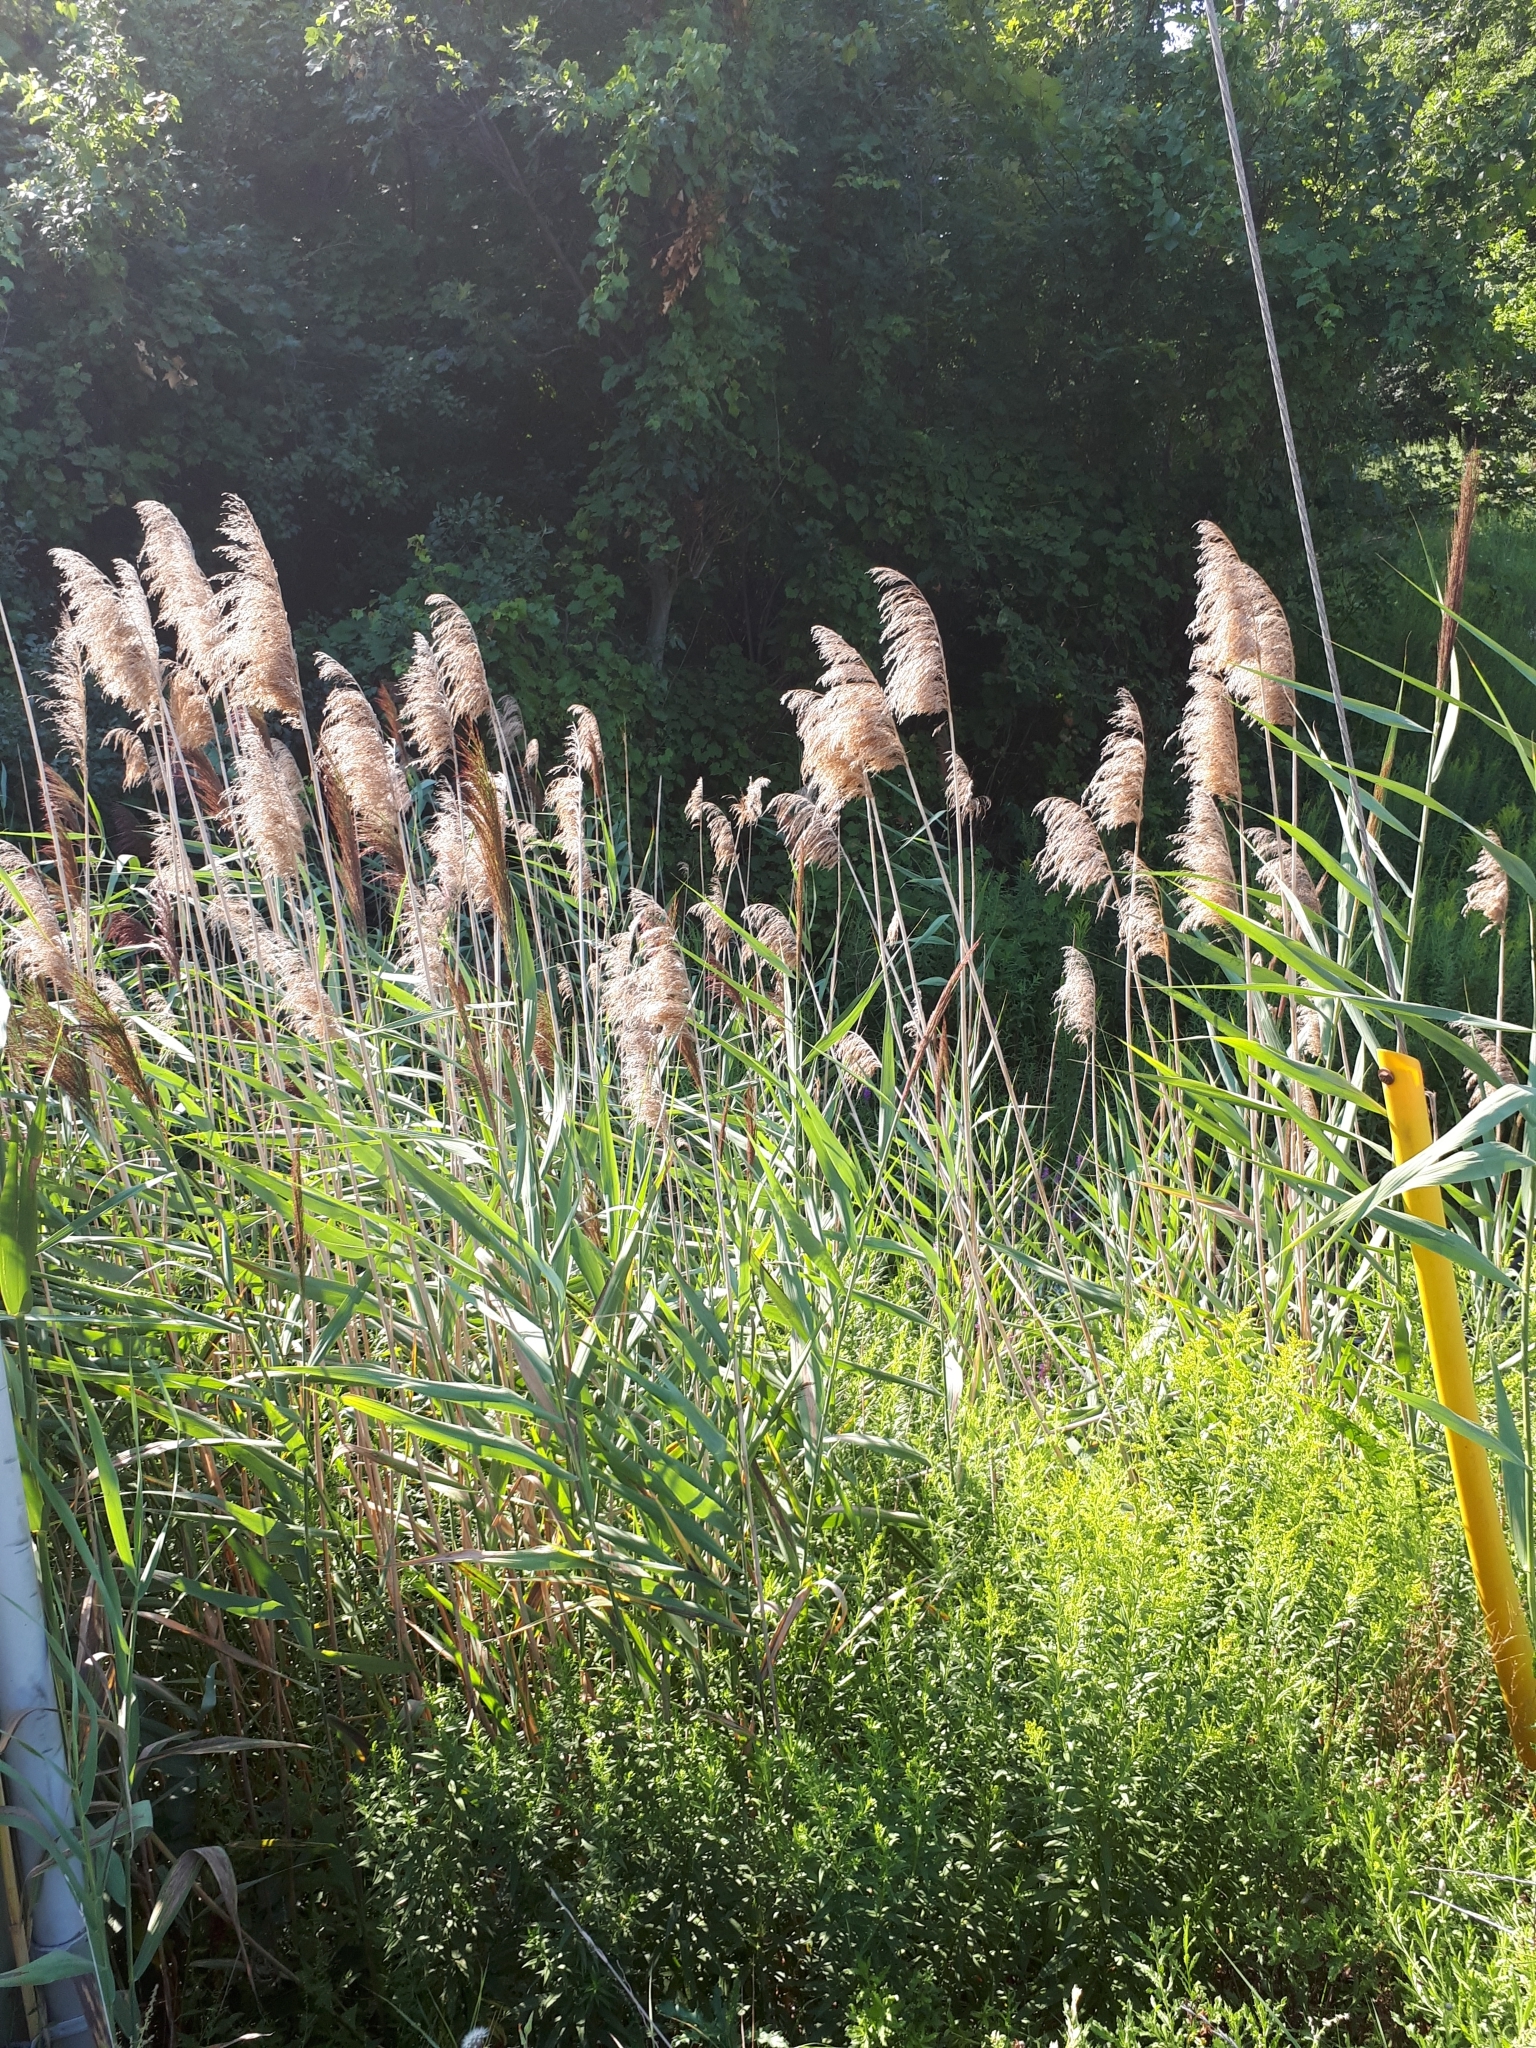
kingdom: Plantae
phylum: Tracheophyta
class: Liliopsida
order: Poales
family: Poaceae
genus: Phragmites
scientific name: Phragmites australis
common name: Common reed
